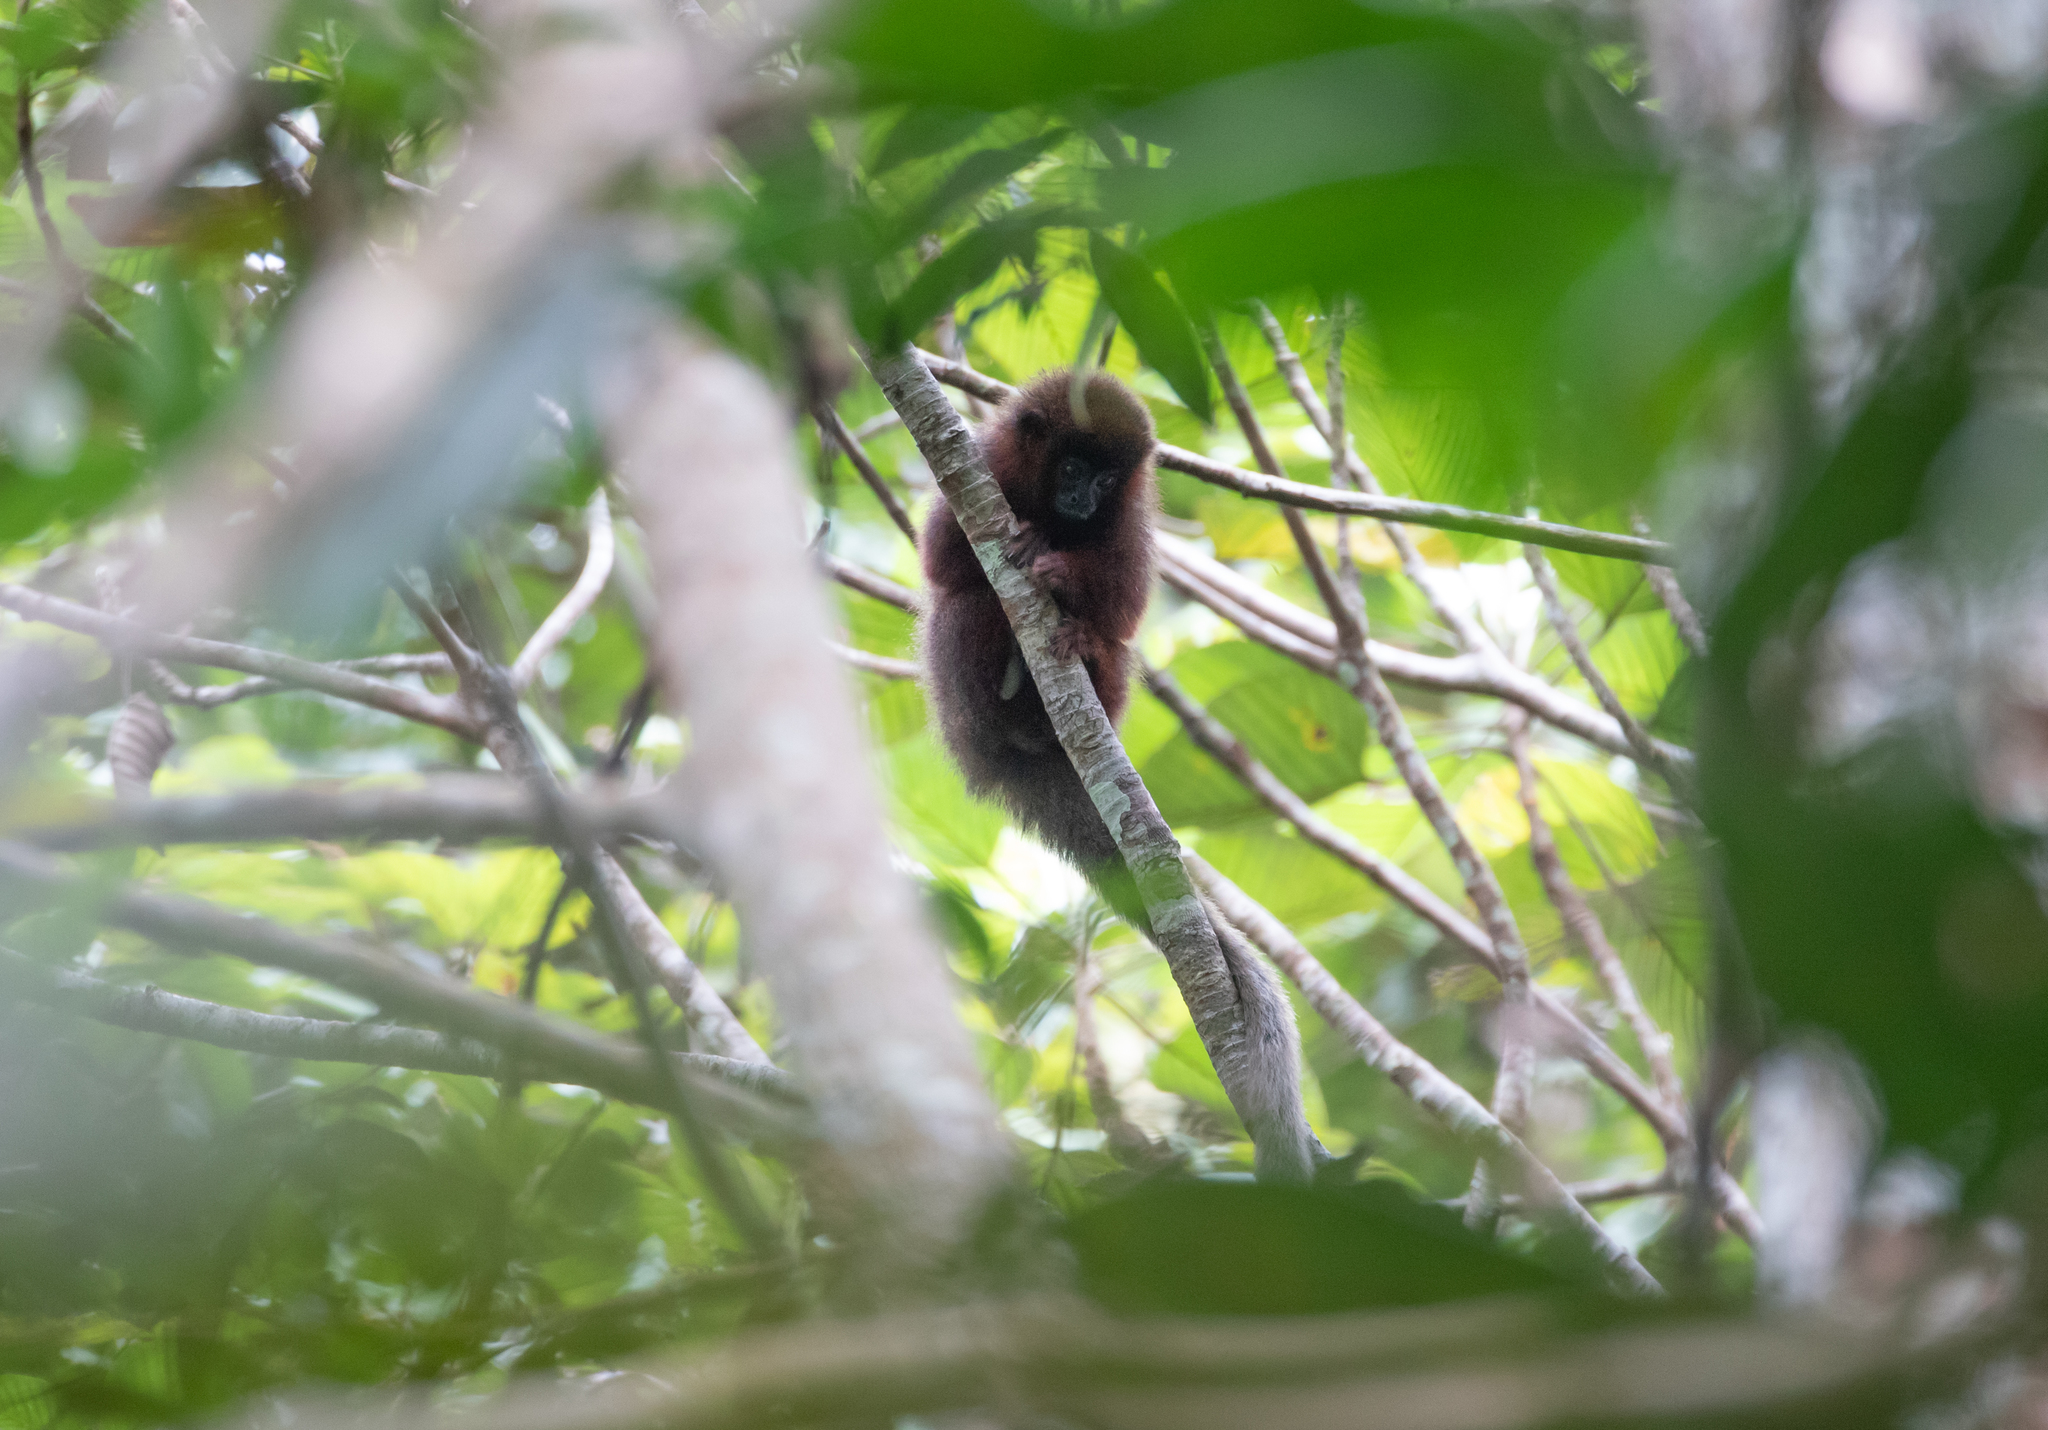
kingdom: Animalia
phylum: Chordata
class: Mammalia
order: Primates
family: Pitheciidae
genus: Plecturocebus
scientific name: Plecturocebus cupreus
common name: Coppery titi
